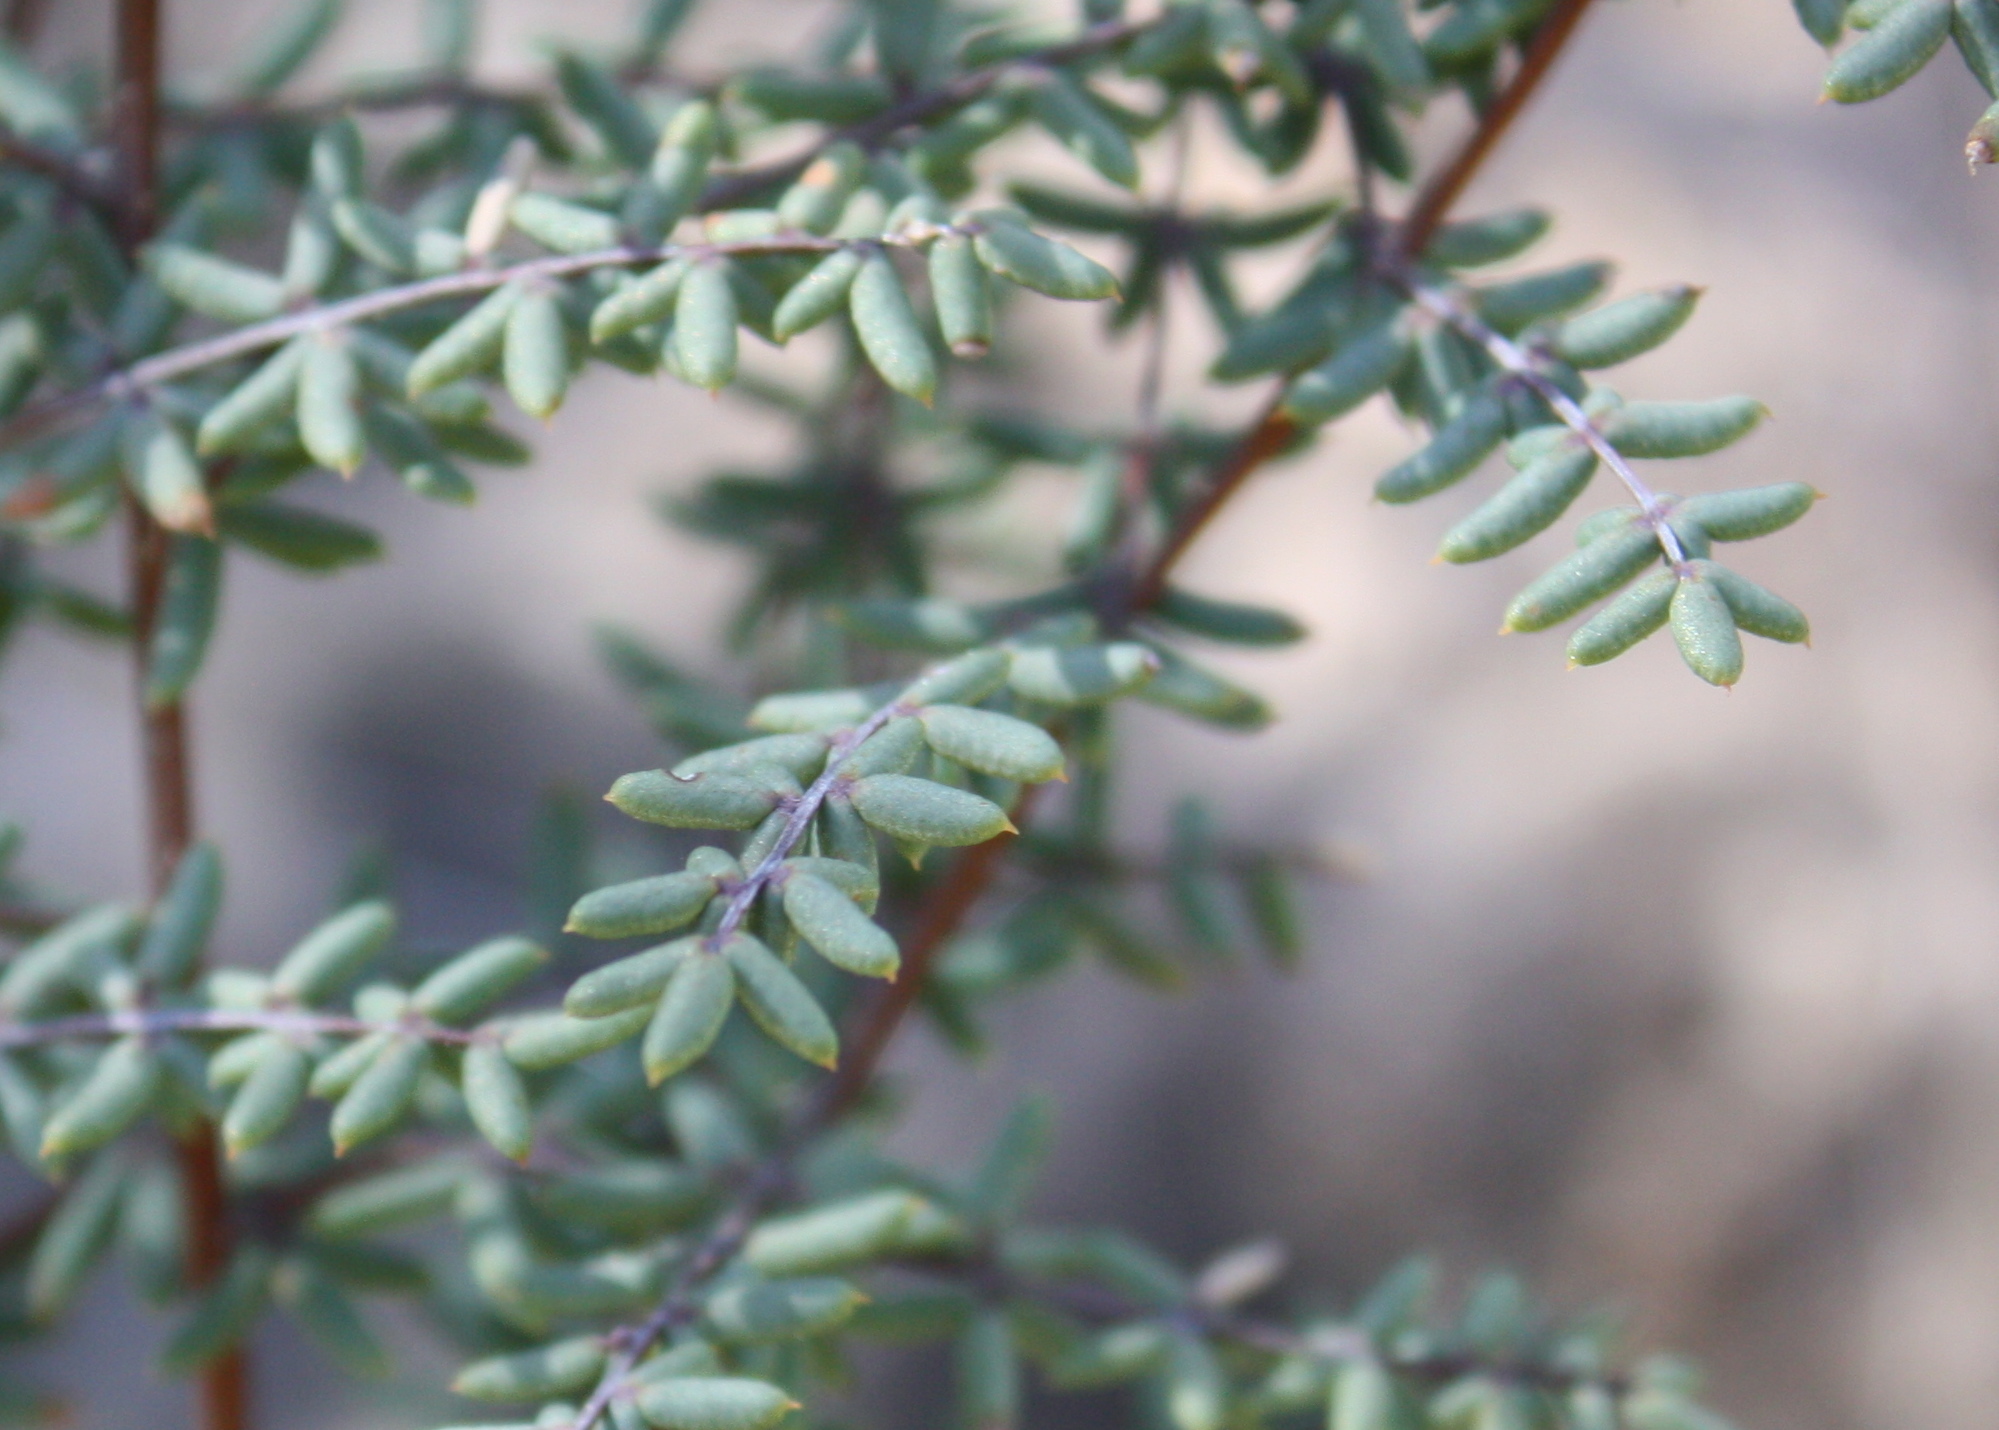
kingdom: Plantae
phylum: Tracheophyta
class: Polypodiopsida
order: Polypodiales
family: Pteridaceae
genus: Pellaea
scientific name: Pellaea mucronata
